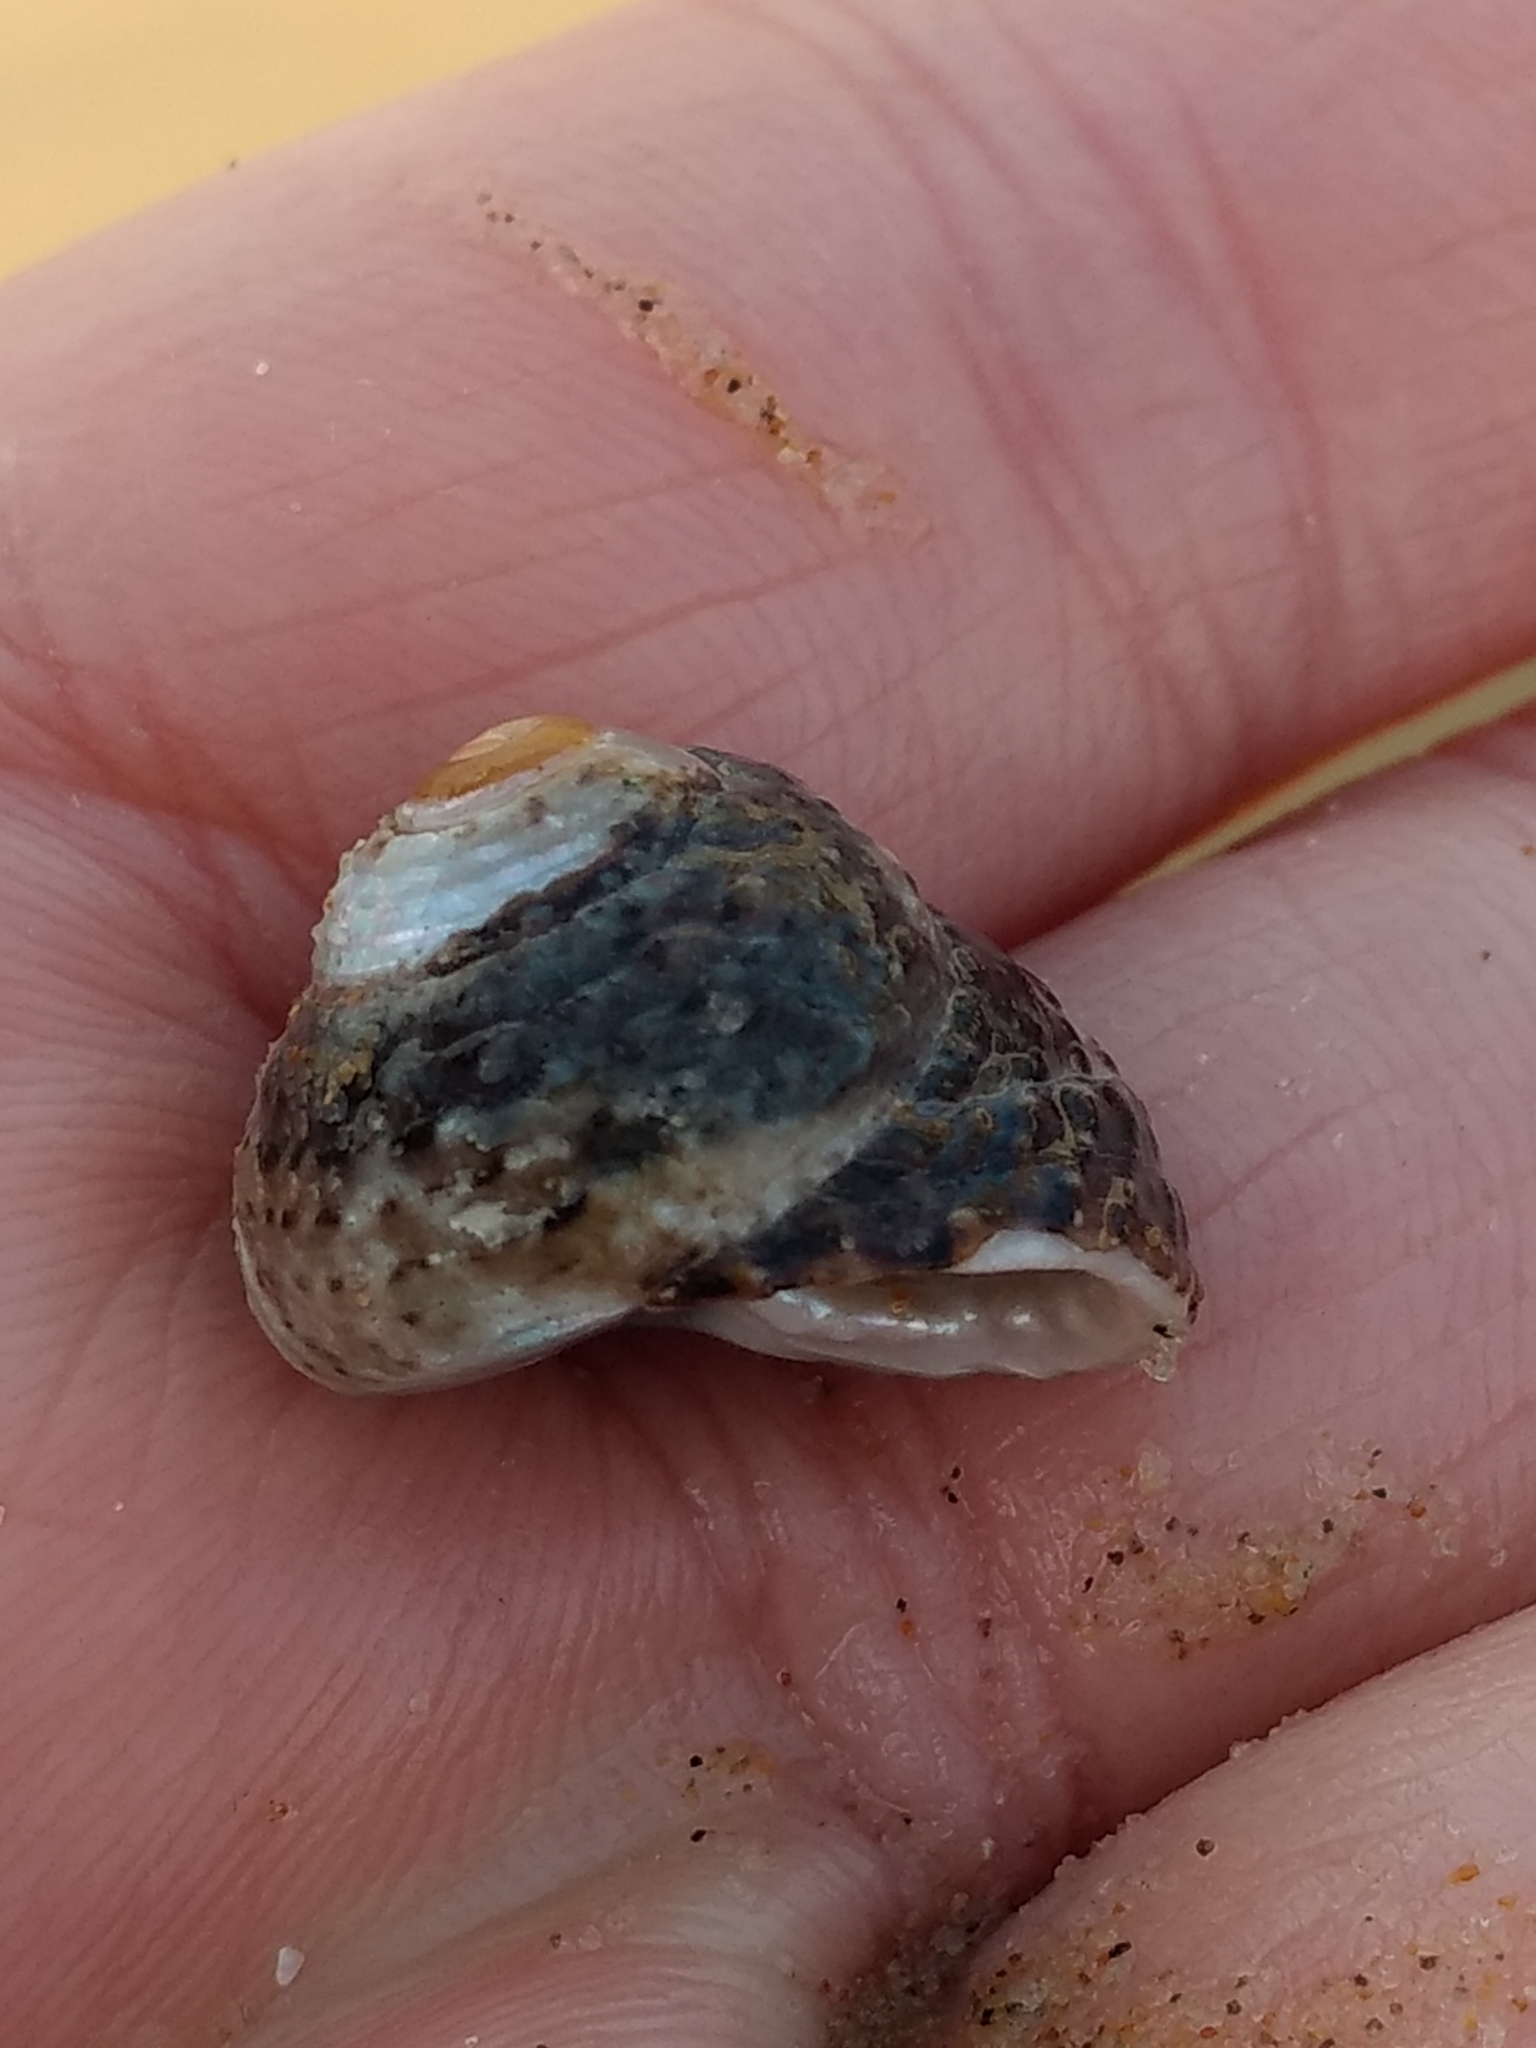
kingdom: Animalia
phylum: Mollusca
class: Gastropoda
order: Trochida
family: Tegulidae
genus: Tegula
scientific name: Tegula eiseni
